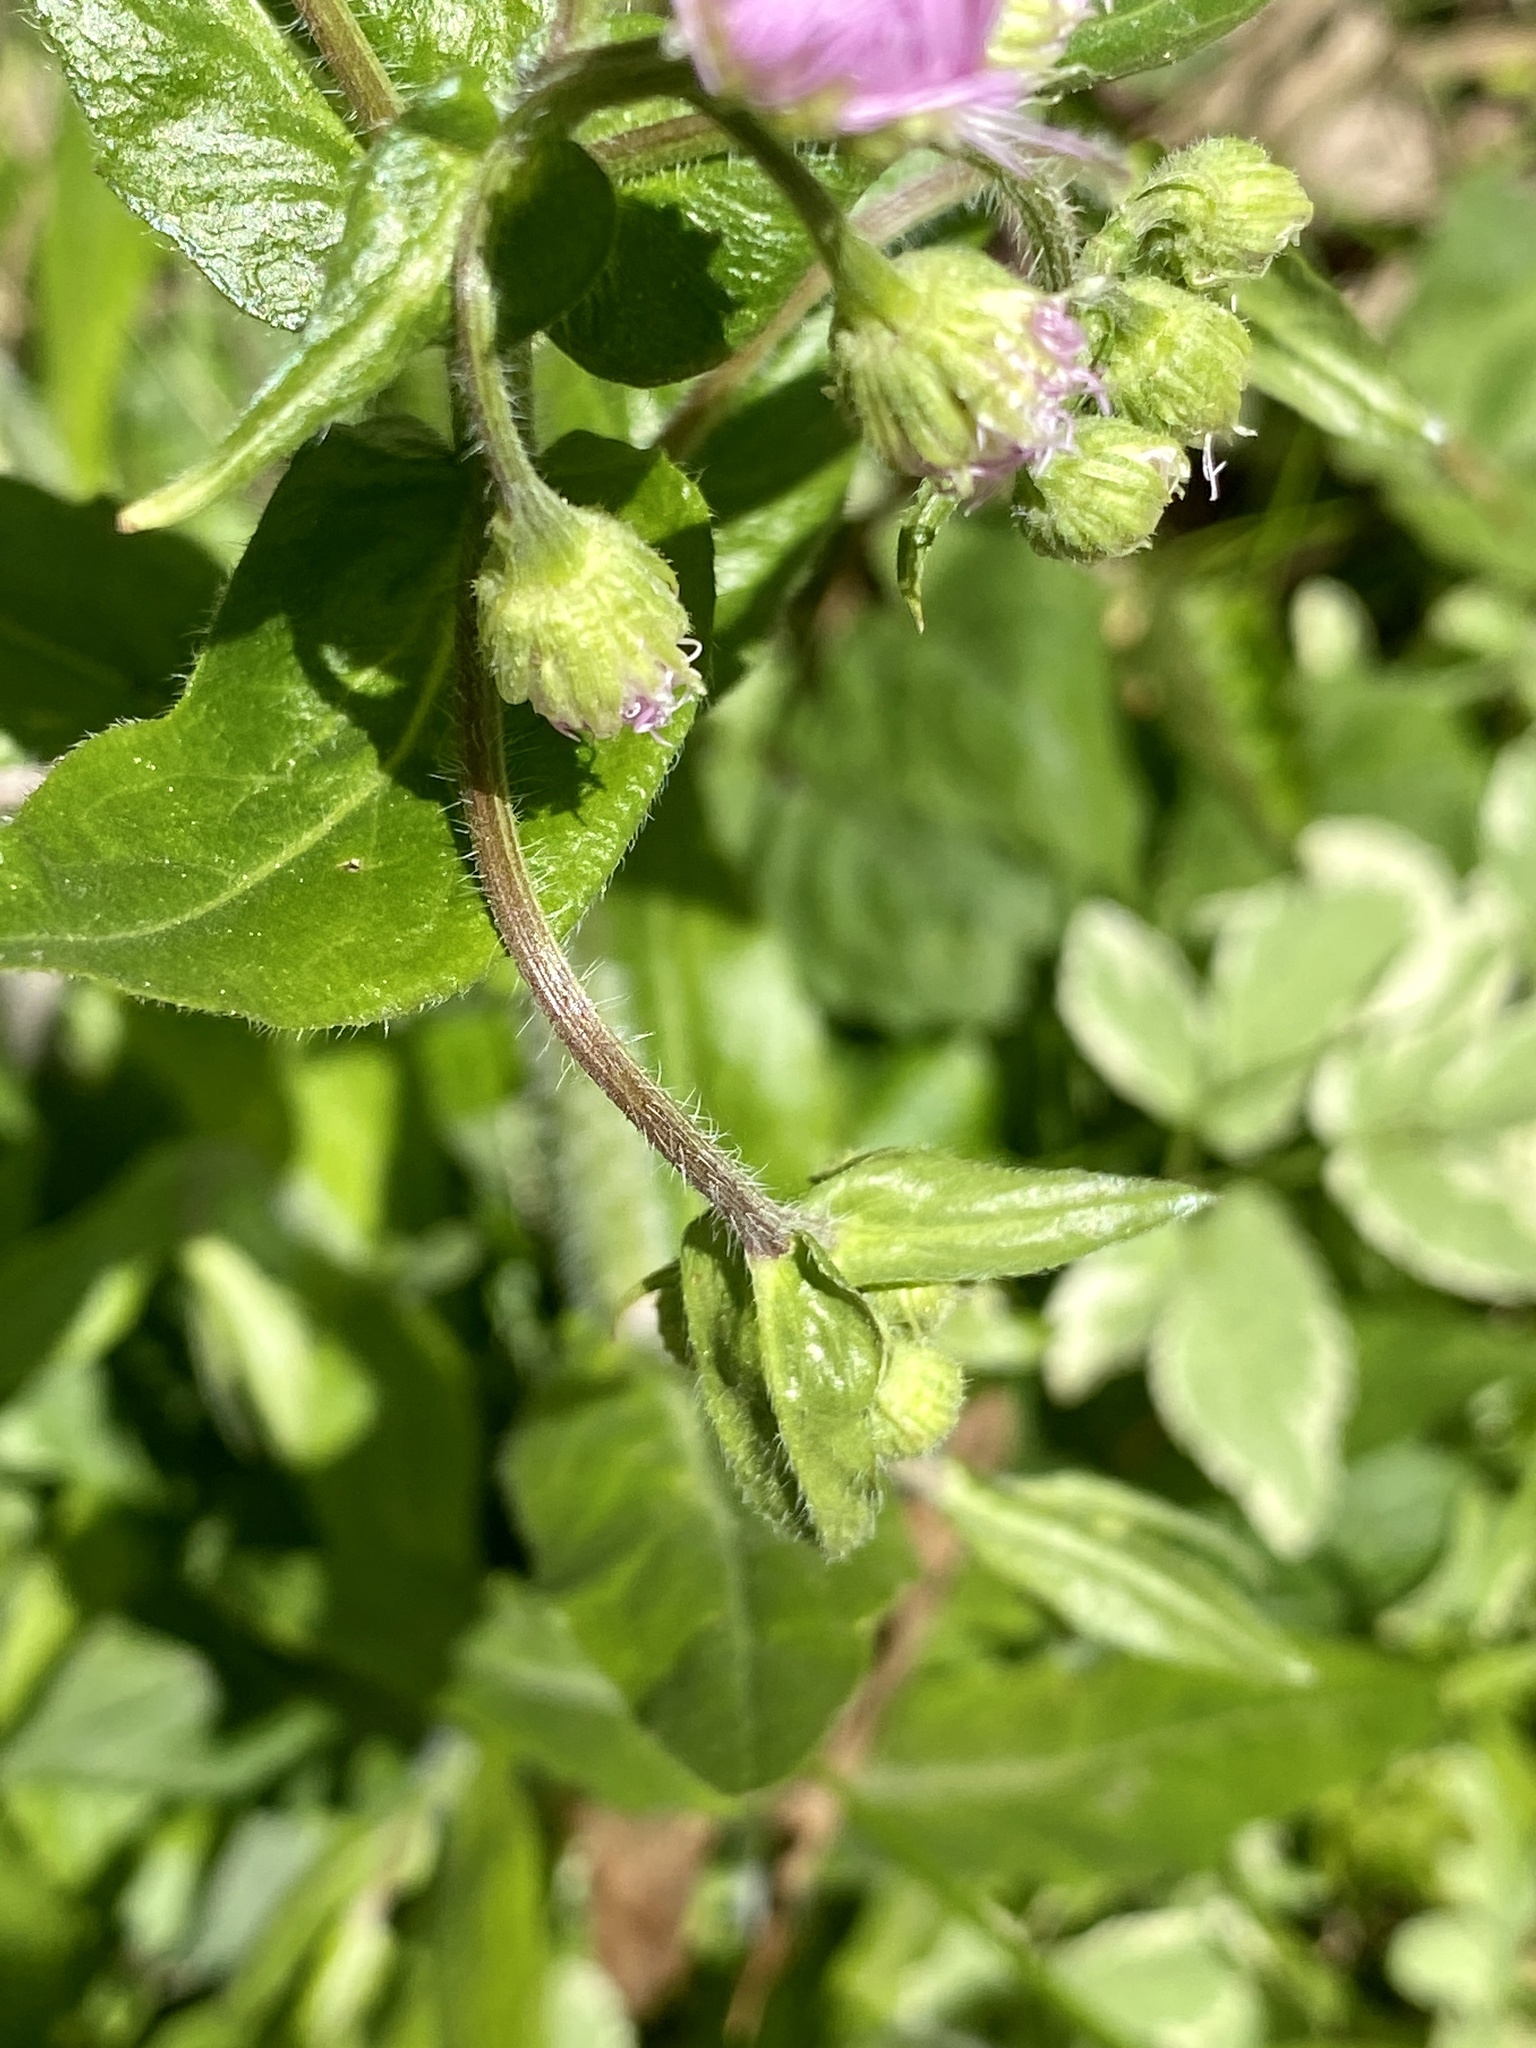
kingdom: Plantae
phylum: Tracheophyta
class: Magnoliopsida
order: Asterales
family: Asteraceae
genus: Erigeron
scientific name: Erigeron philadelphicus
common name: Robin's-plantain
